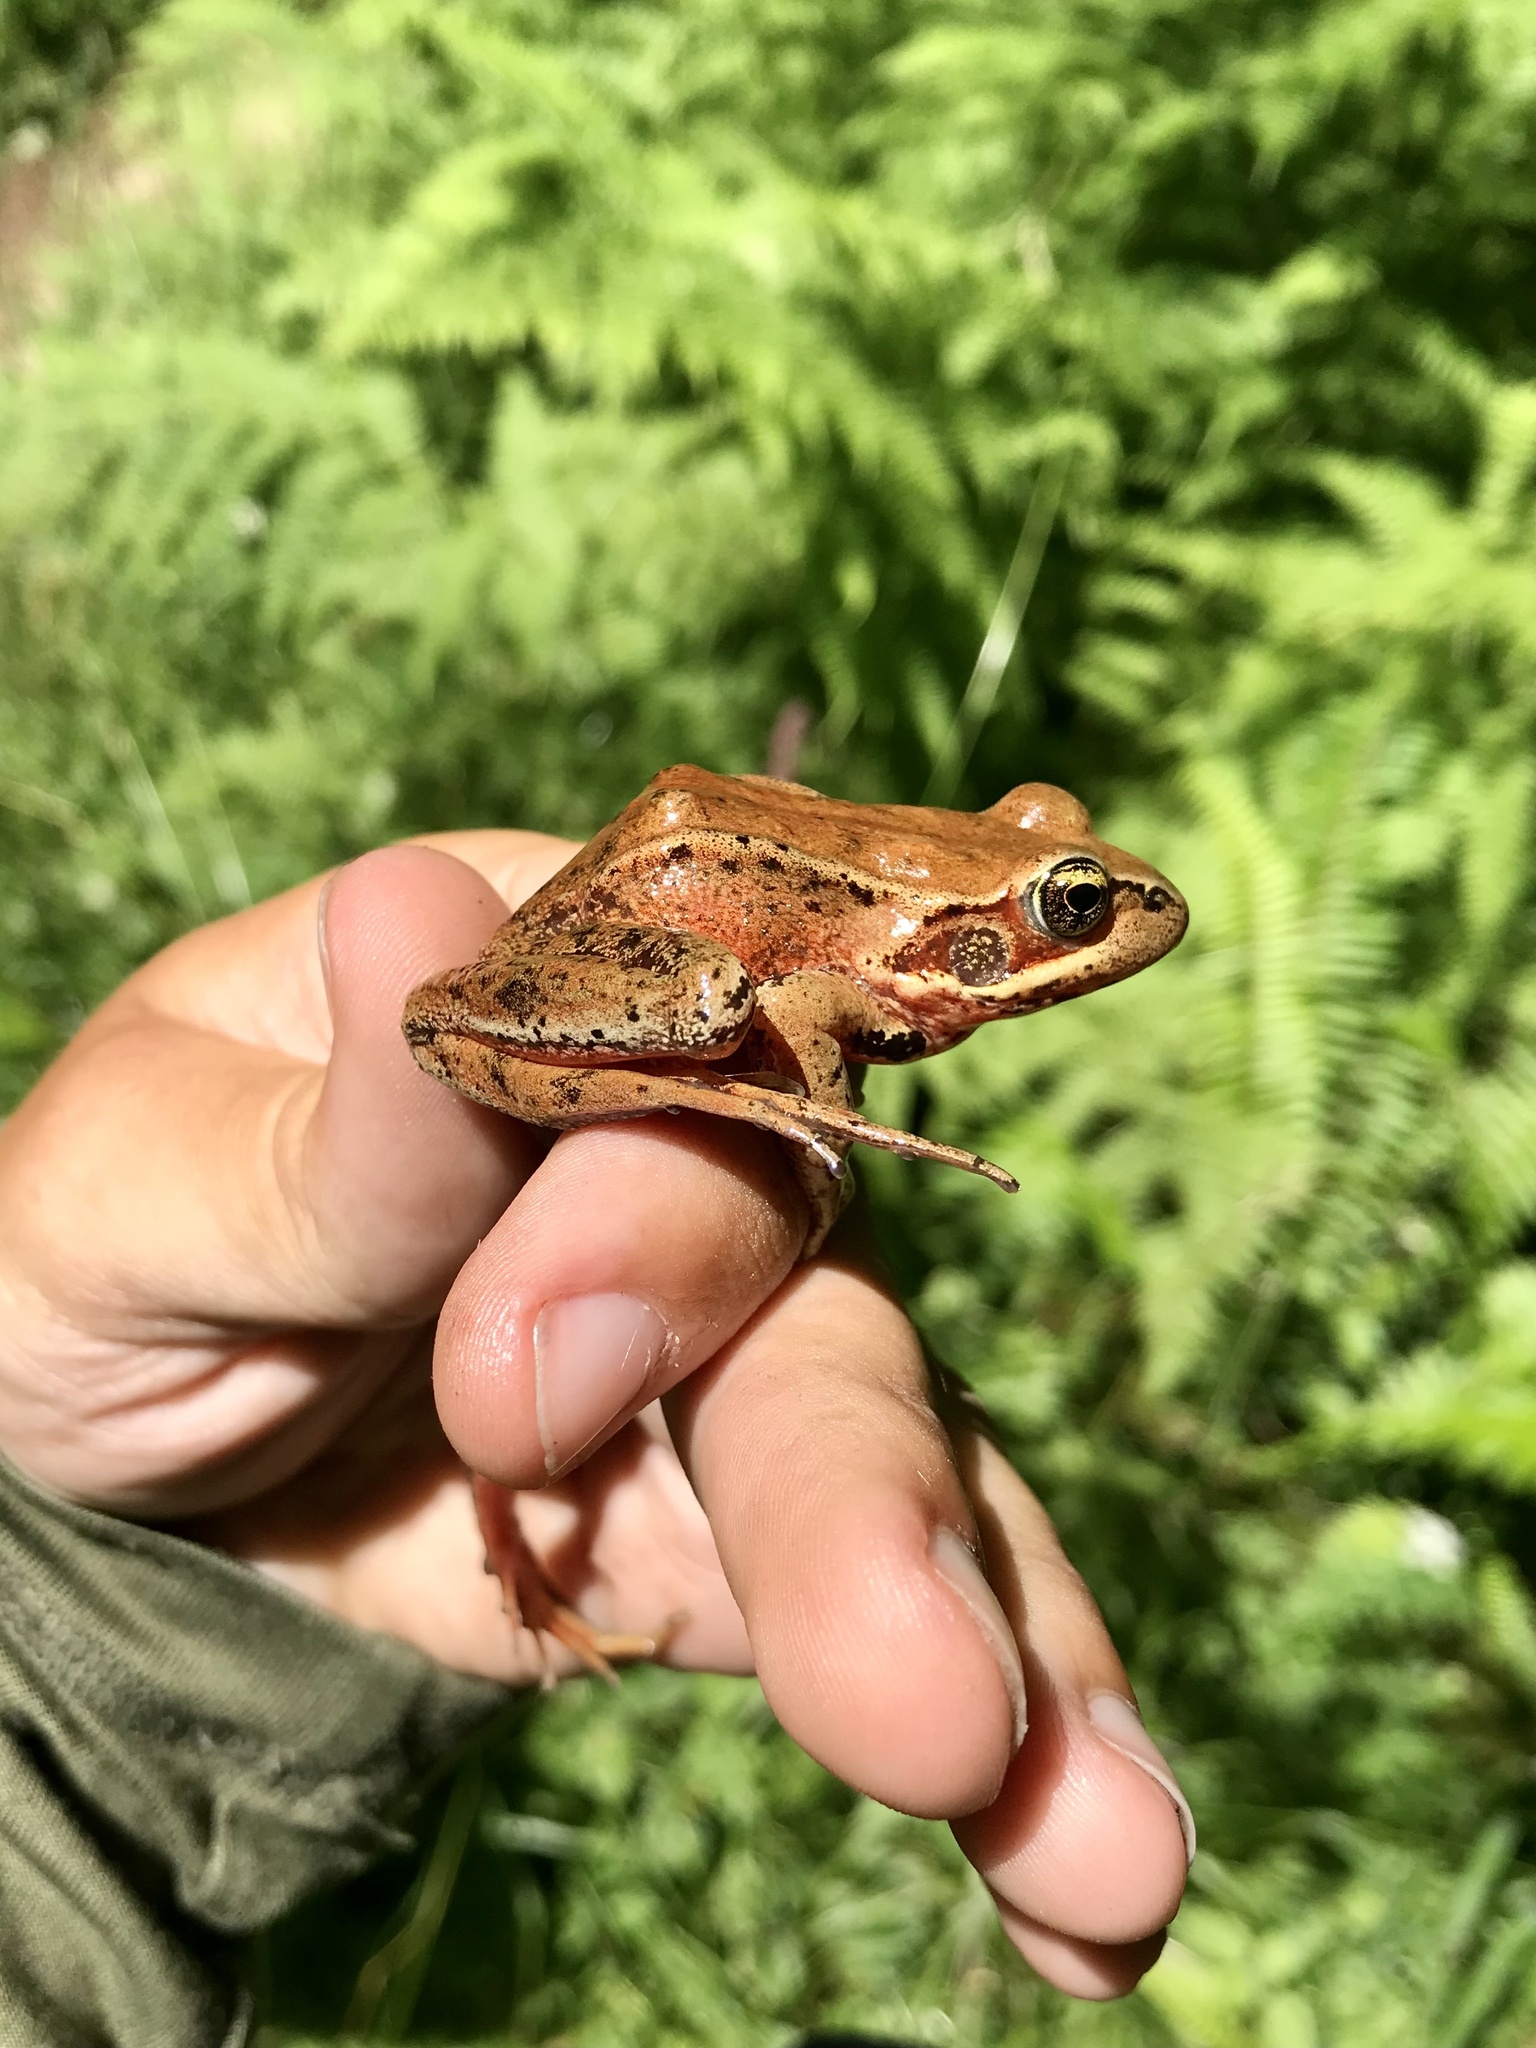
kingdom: Animalia
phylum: Chordata
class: Amphibia
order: Anura
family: Ranidae
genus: Rana
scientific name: Rana aurora
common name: Red-legged frog
